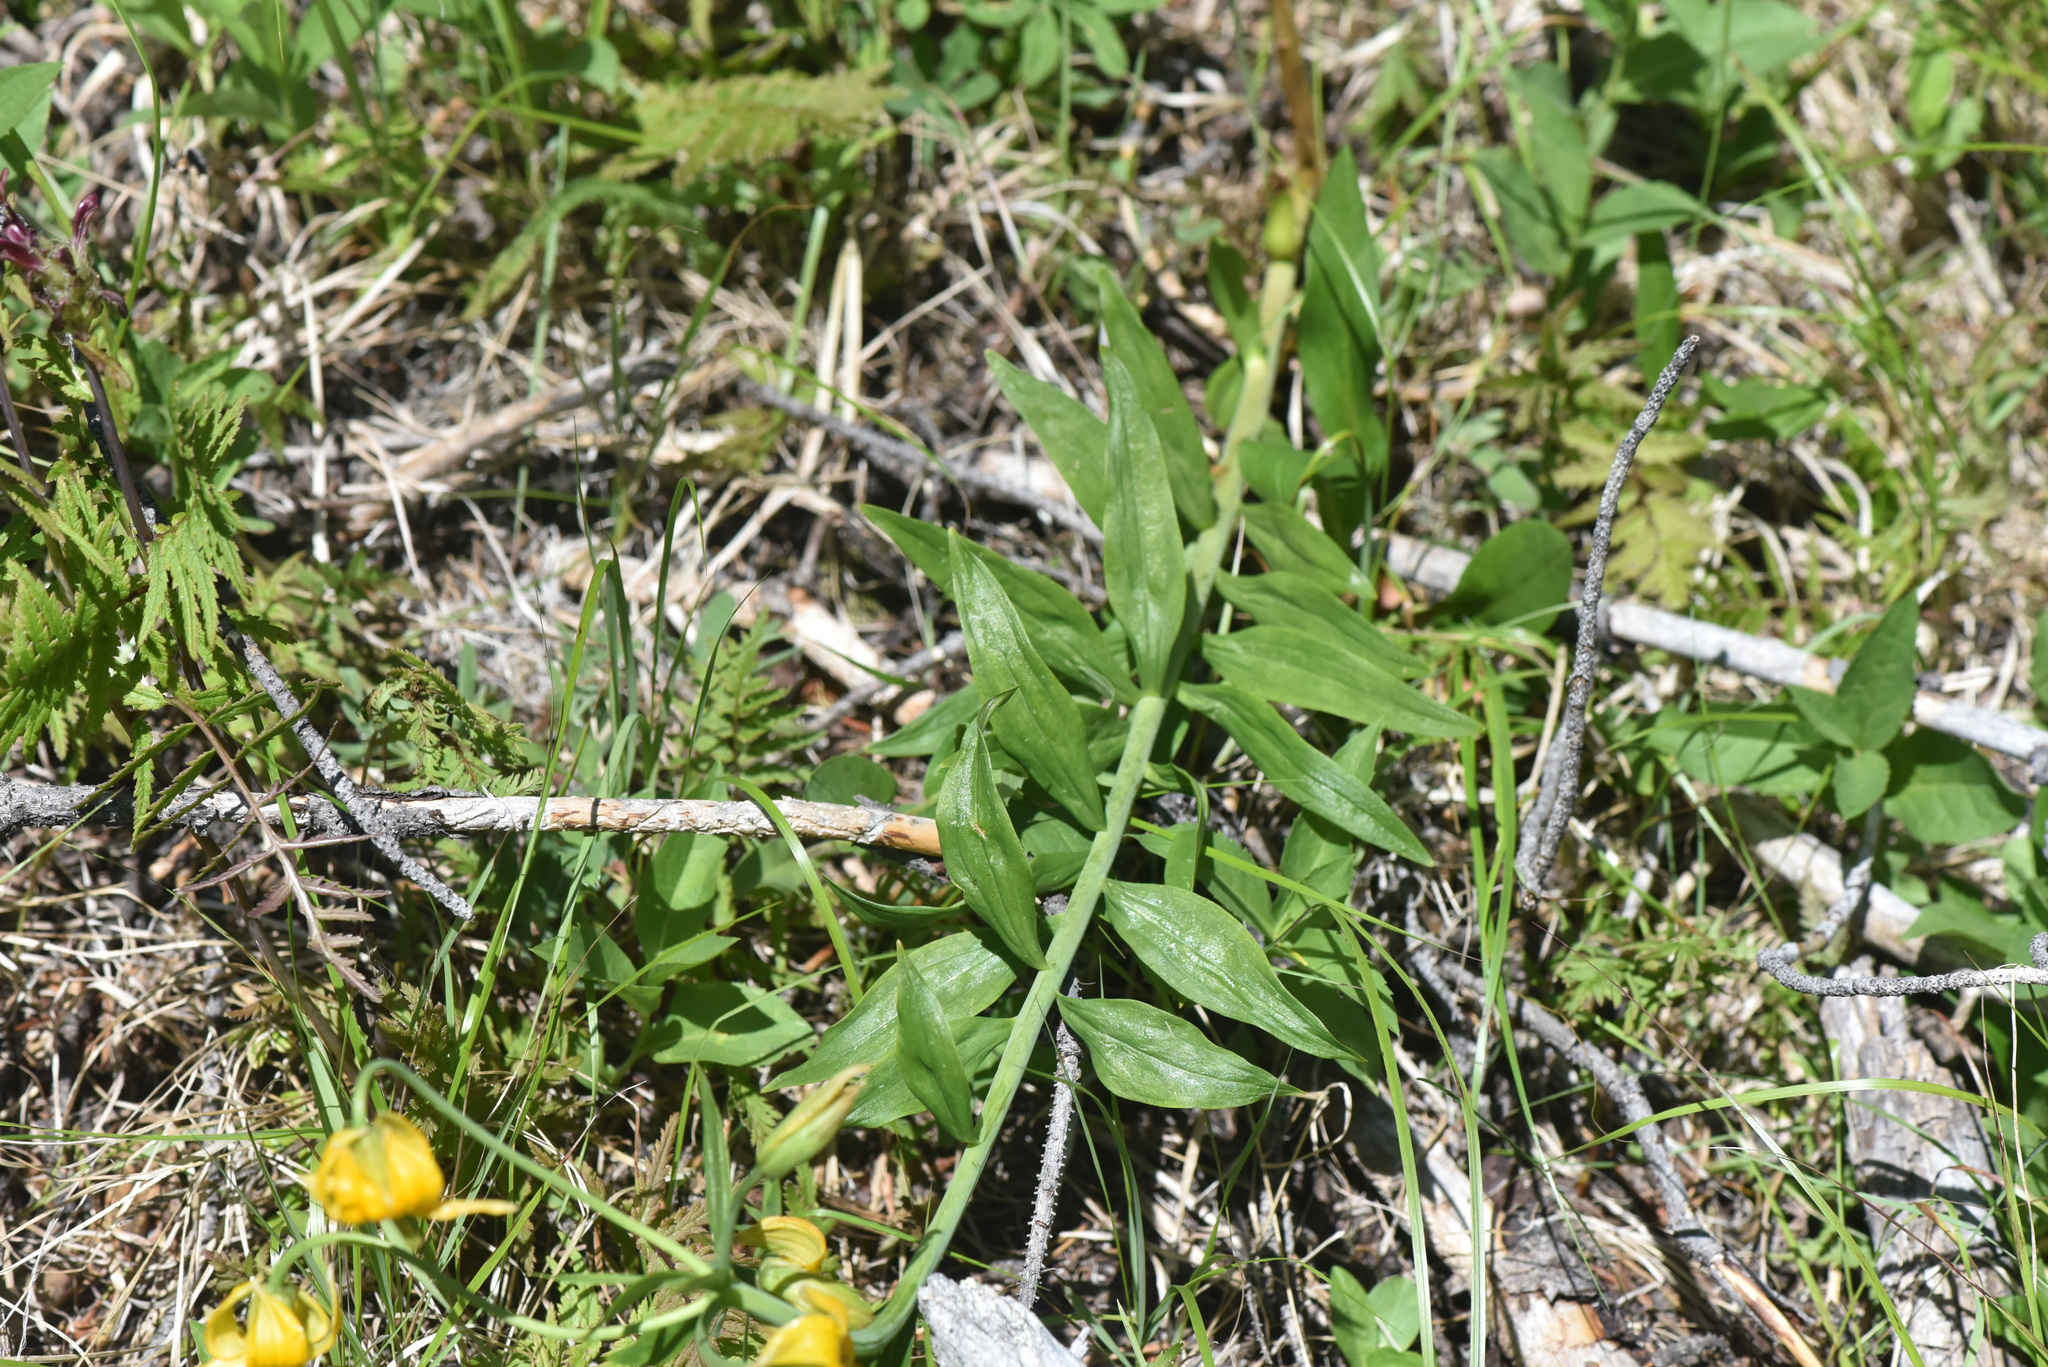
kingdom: Plantae
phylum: Tracheophyta
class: Liliopsida
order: Liliales
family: Liliaceae
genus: Lilium
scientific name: Lilium columbianum
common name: Columbia lily
